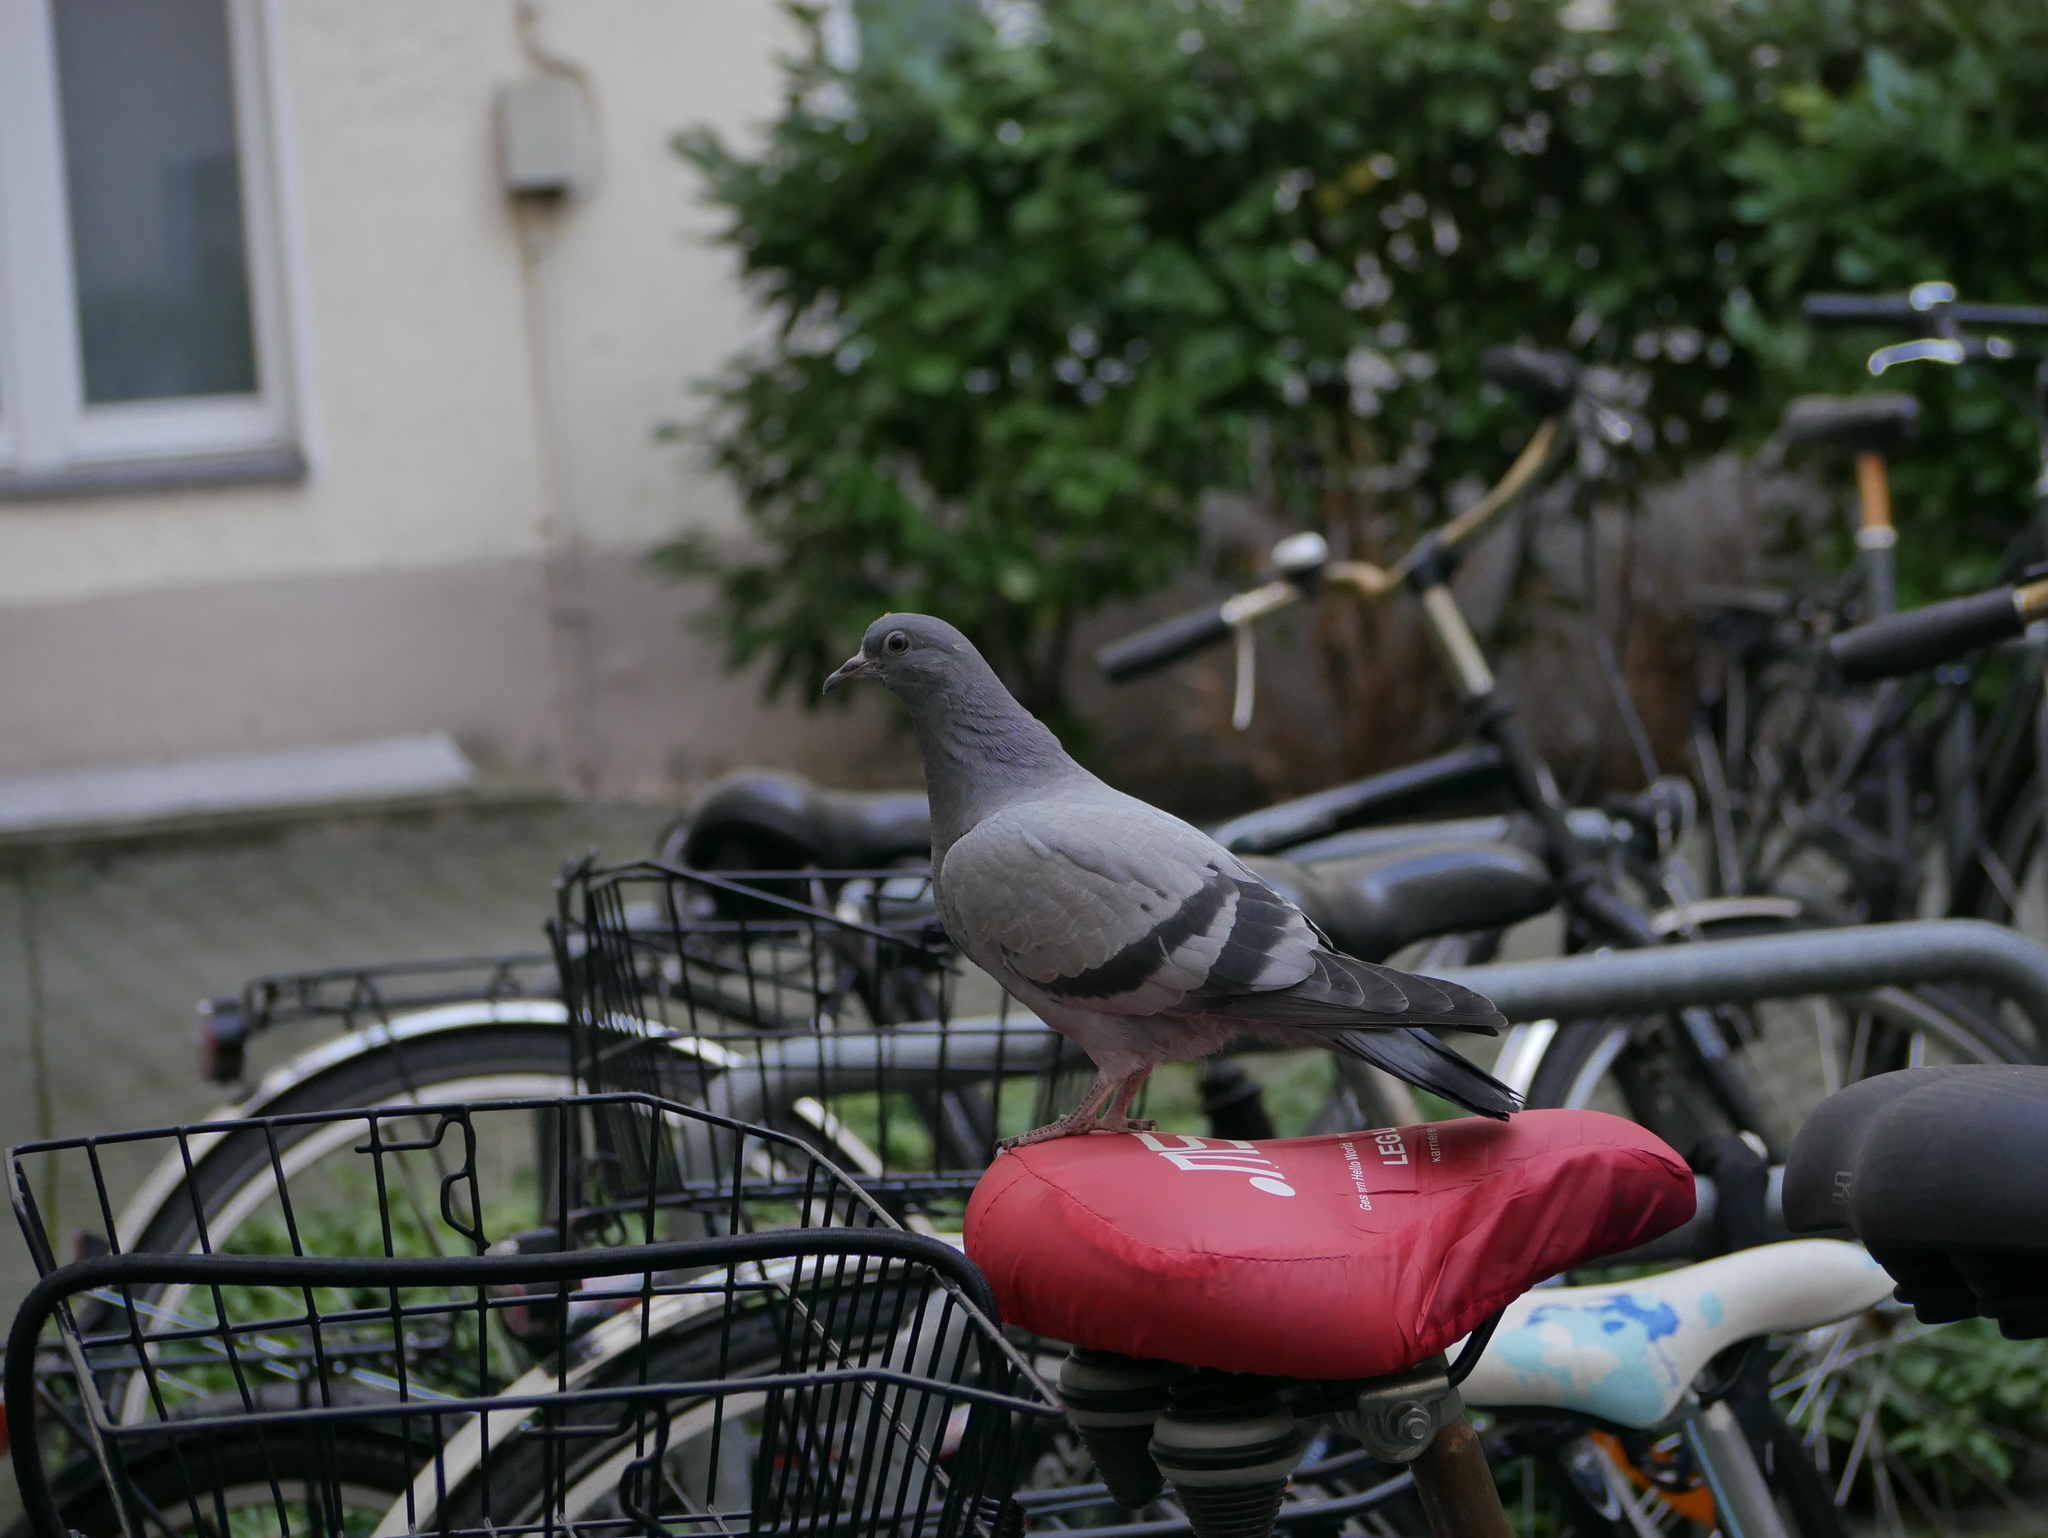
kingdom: Animalia
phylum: Chordata
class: Aves
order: Columbiformes
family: Columbidae
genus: Columba
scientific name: Columba livia
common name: Rock pigeon
